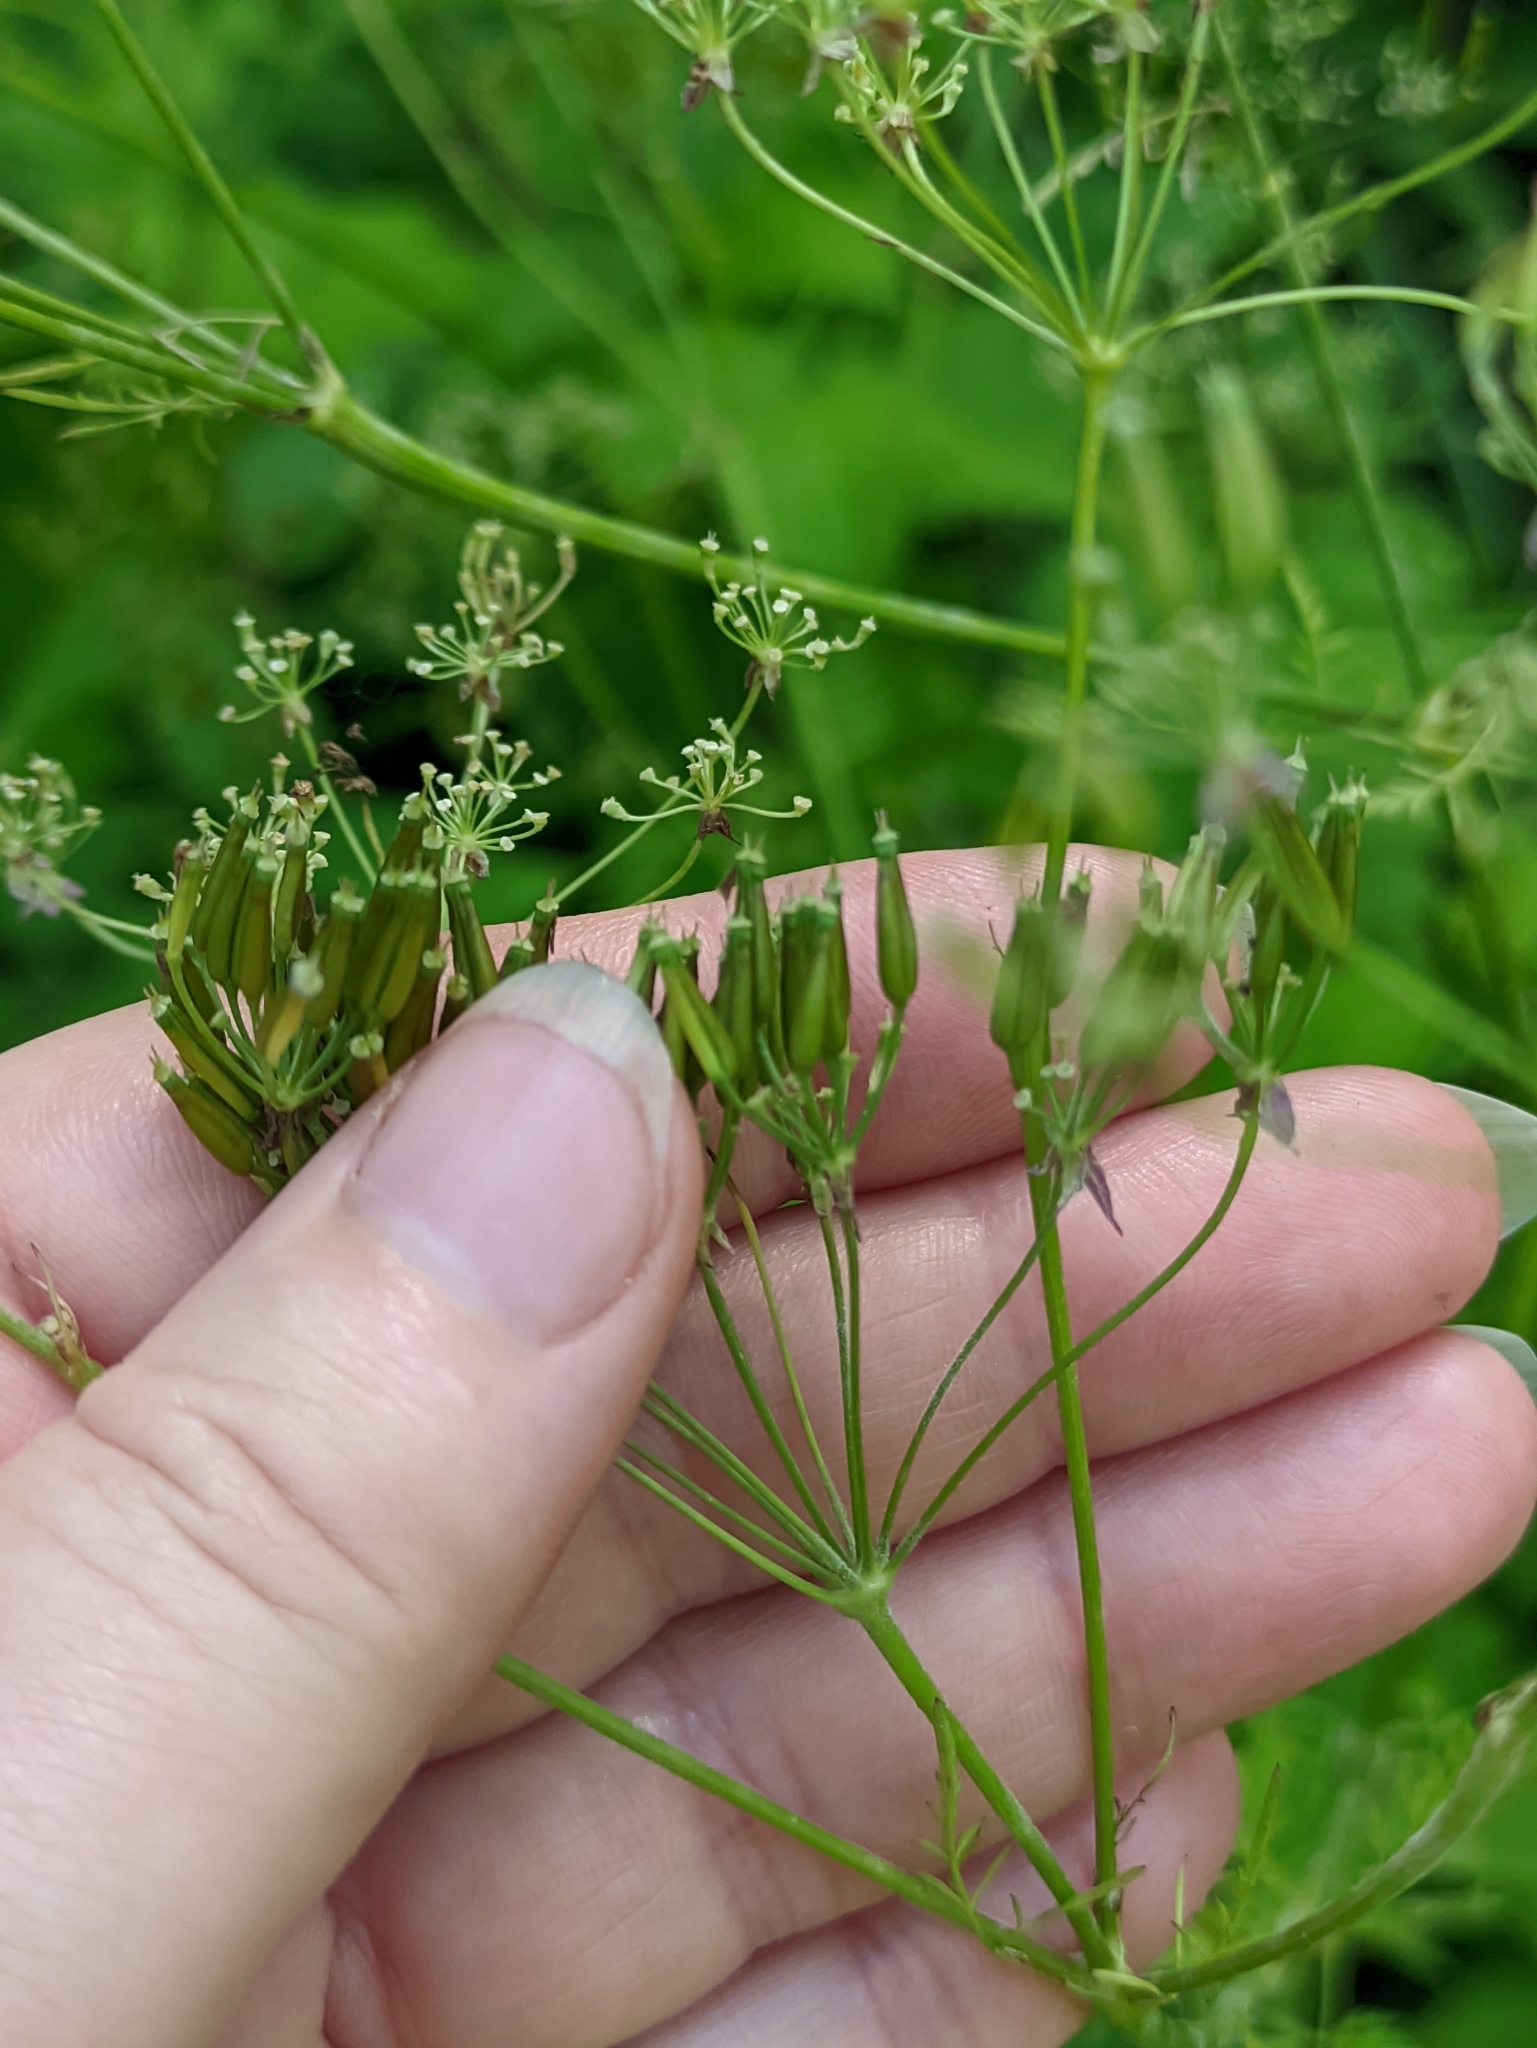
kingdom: Plantae
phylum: Tracheophyta
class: Magnoliopsida
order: Apiales
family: Apiaceae
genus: Anthriscus
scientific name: Anthriscus sylvestris
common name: Cow parsley
